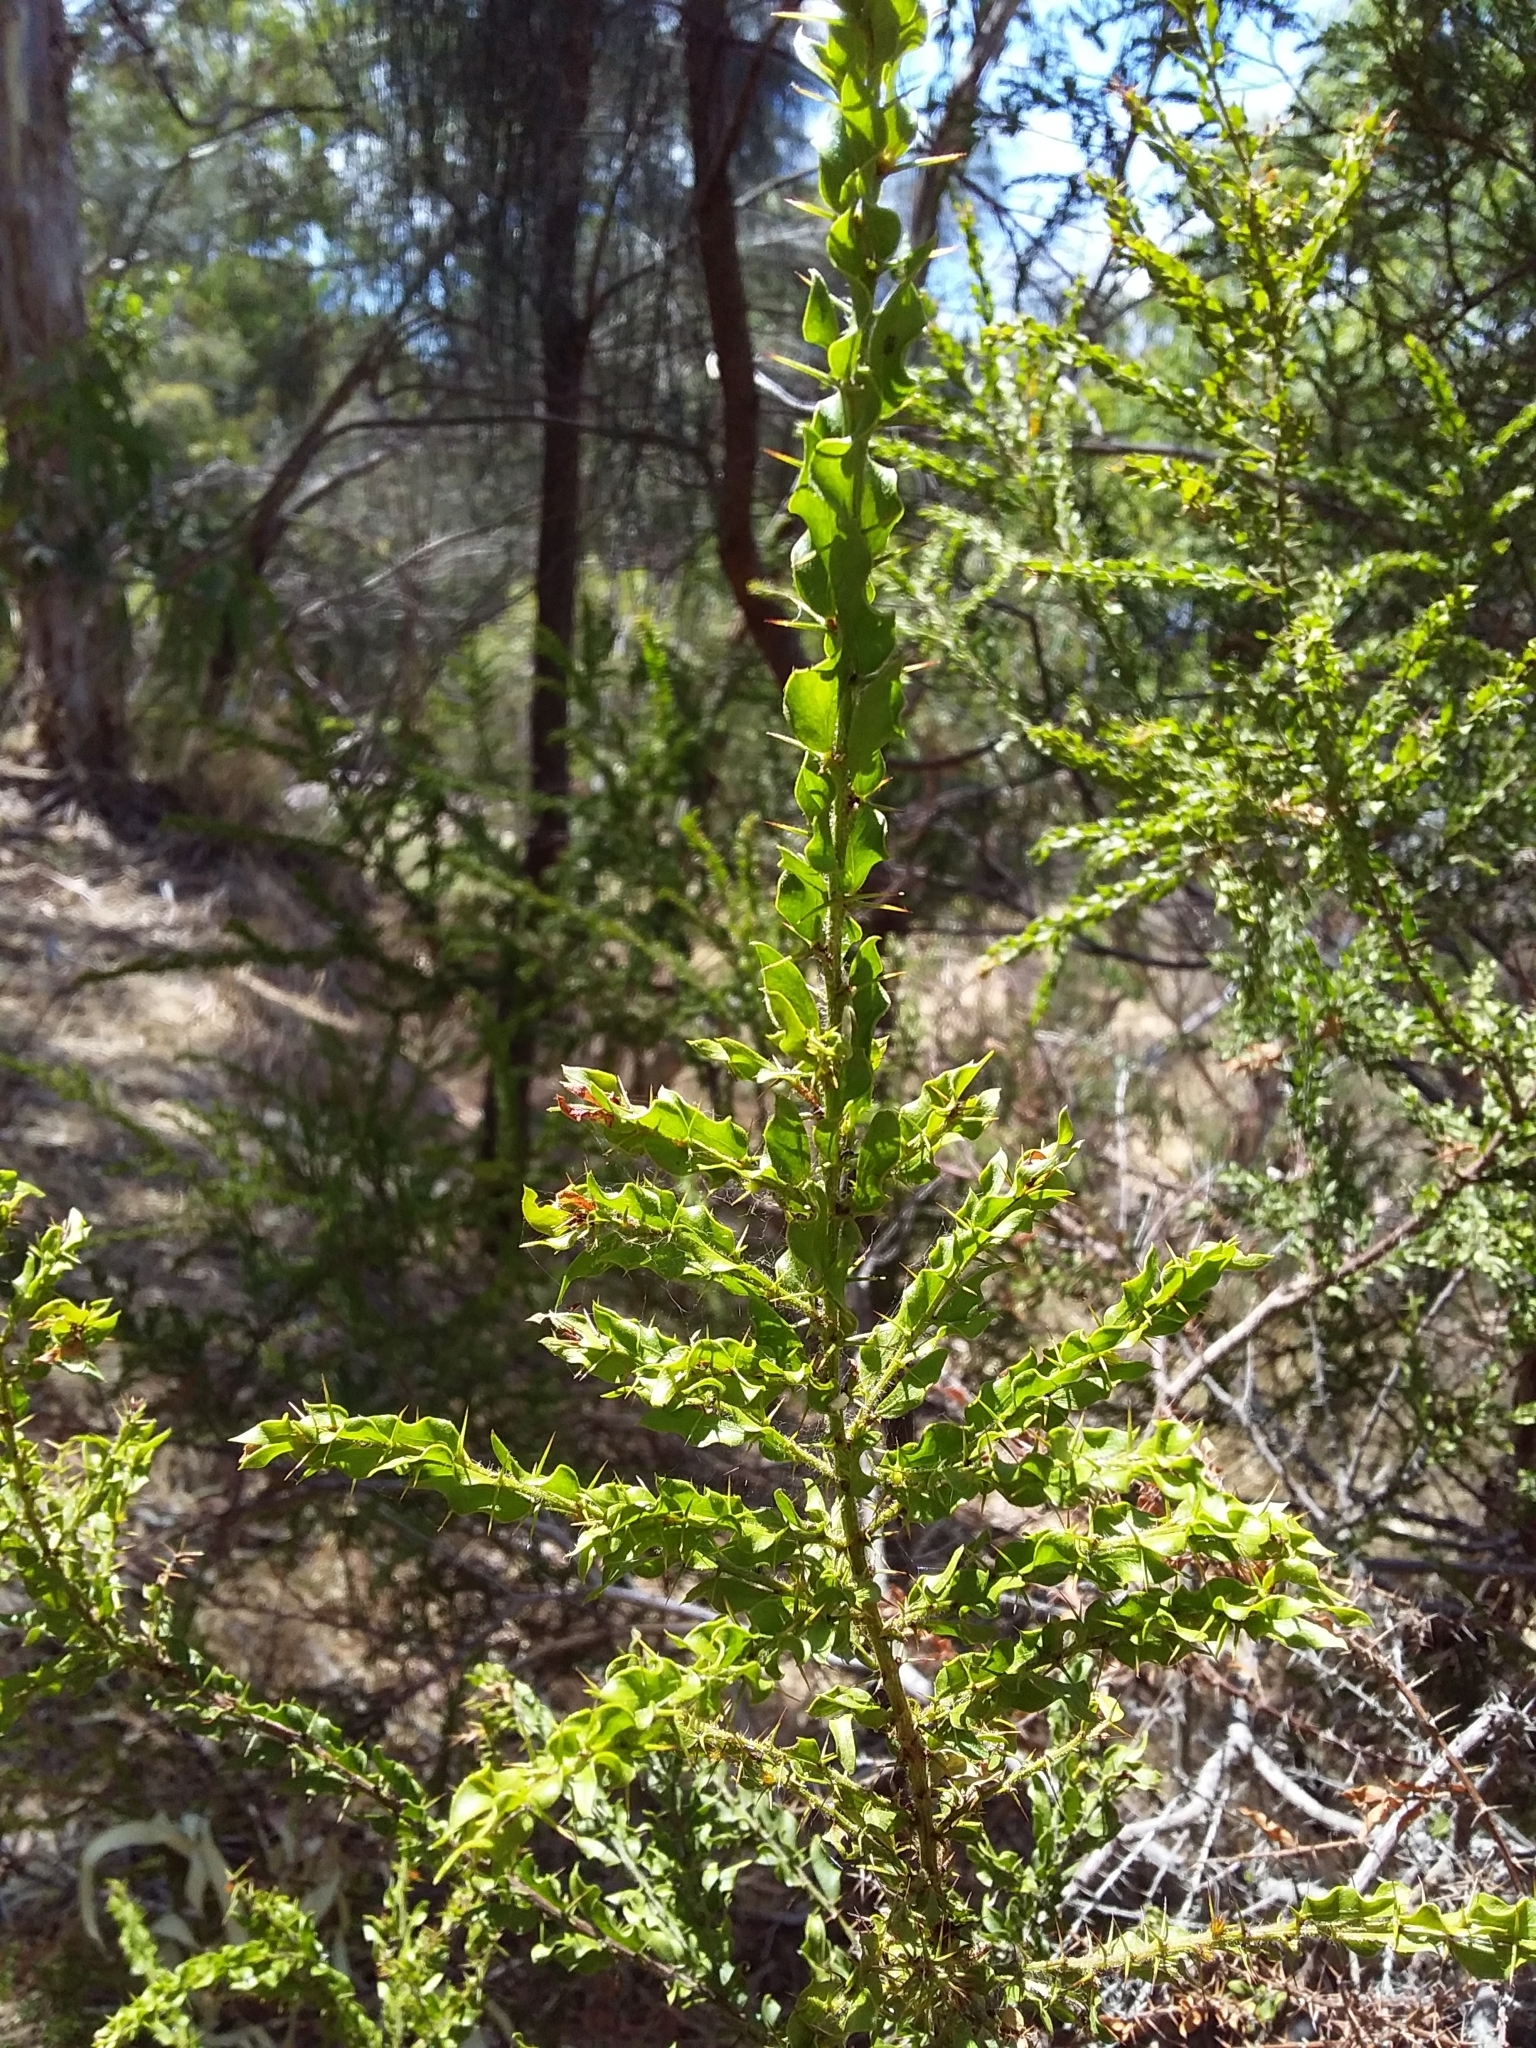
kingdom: Plantae
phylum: Tracheophyta
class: Magnoliopsida
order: Fabales
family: Fabaceae
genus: Acacia
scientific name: Acacia paradoxa
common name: Paradox acacia
